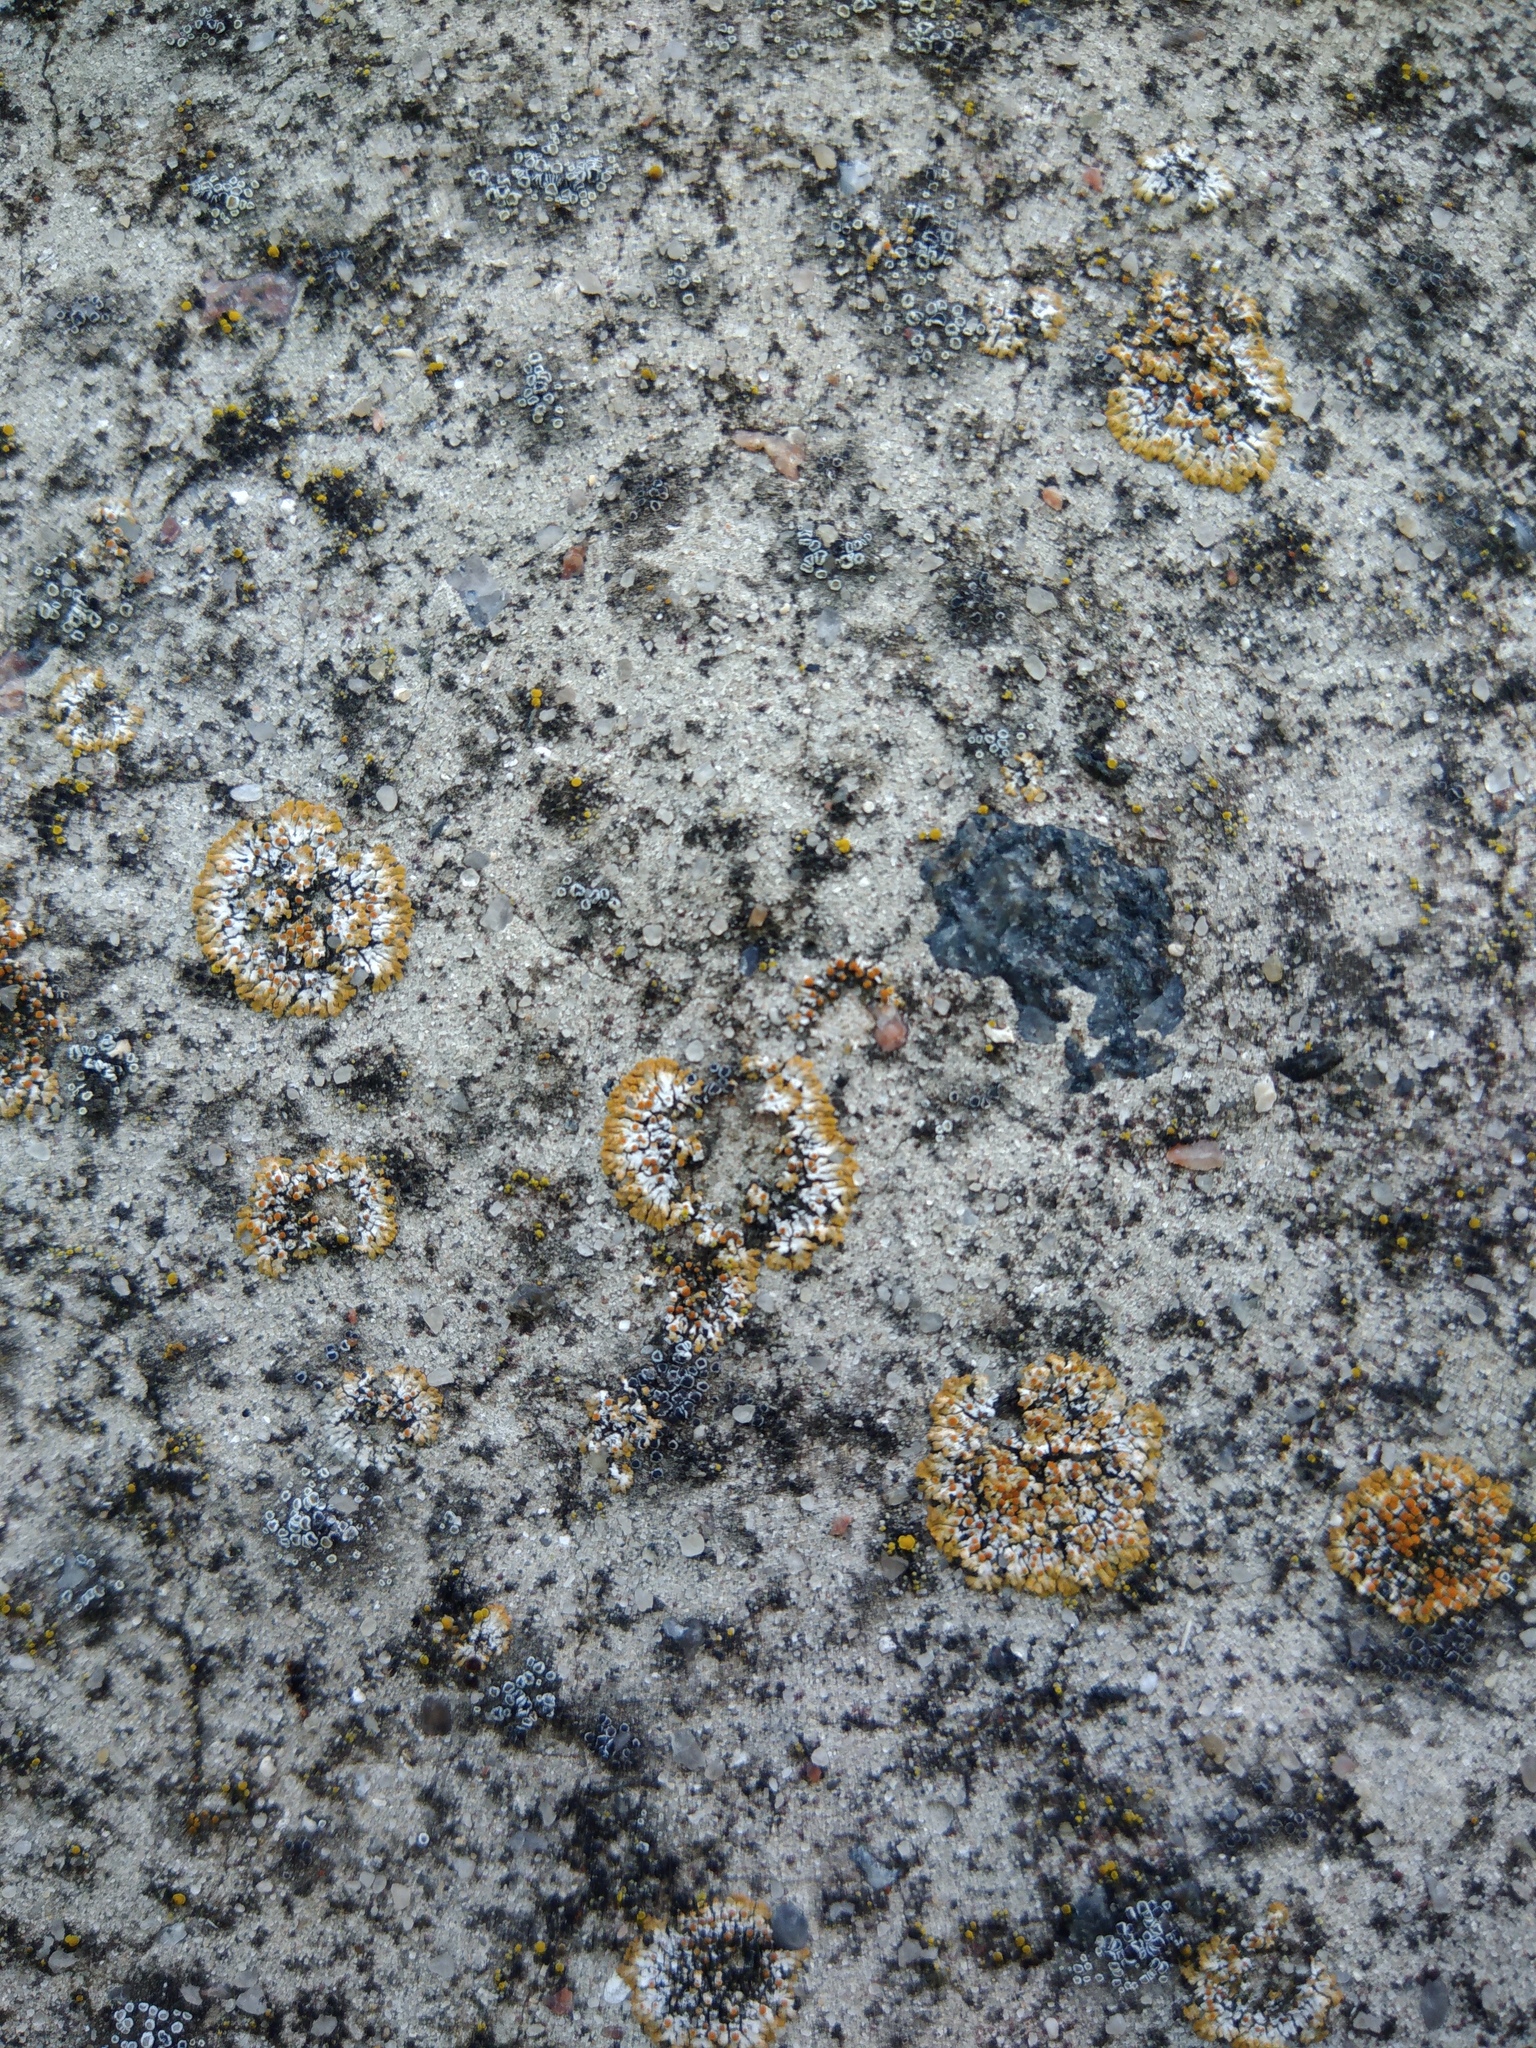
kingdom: Fungi
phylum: Ascomycota
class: Lecanoromycetes
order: Teloschistales
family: Teloschistaceae
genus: Calogaya
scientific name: Calogaya pusilla
